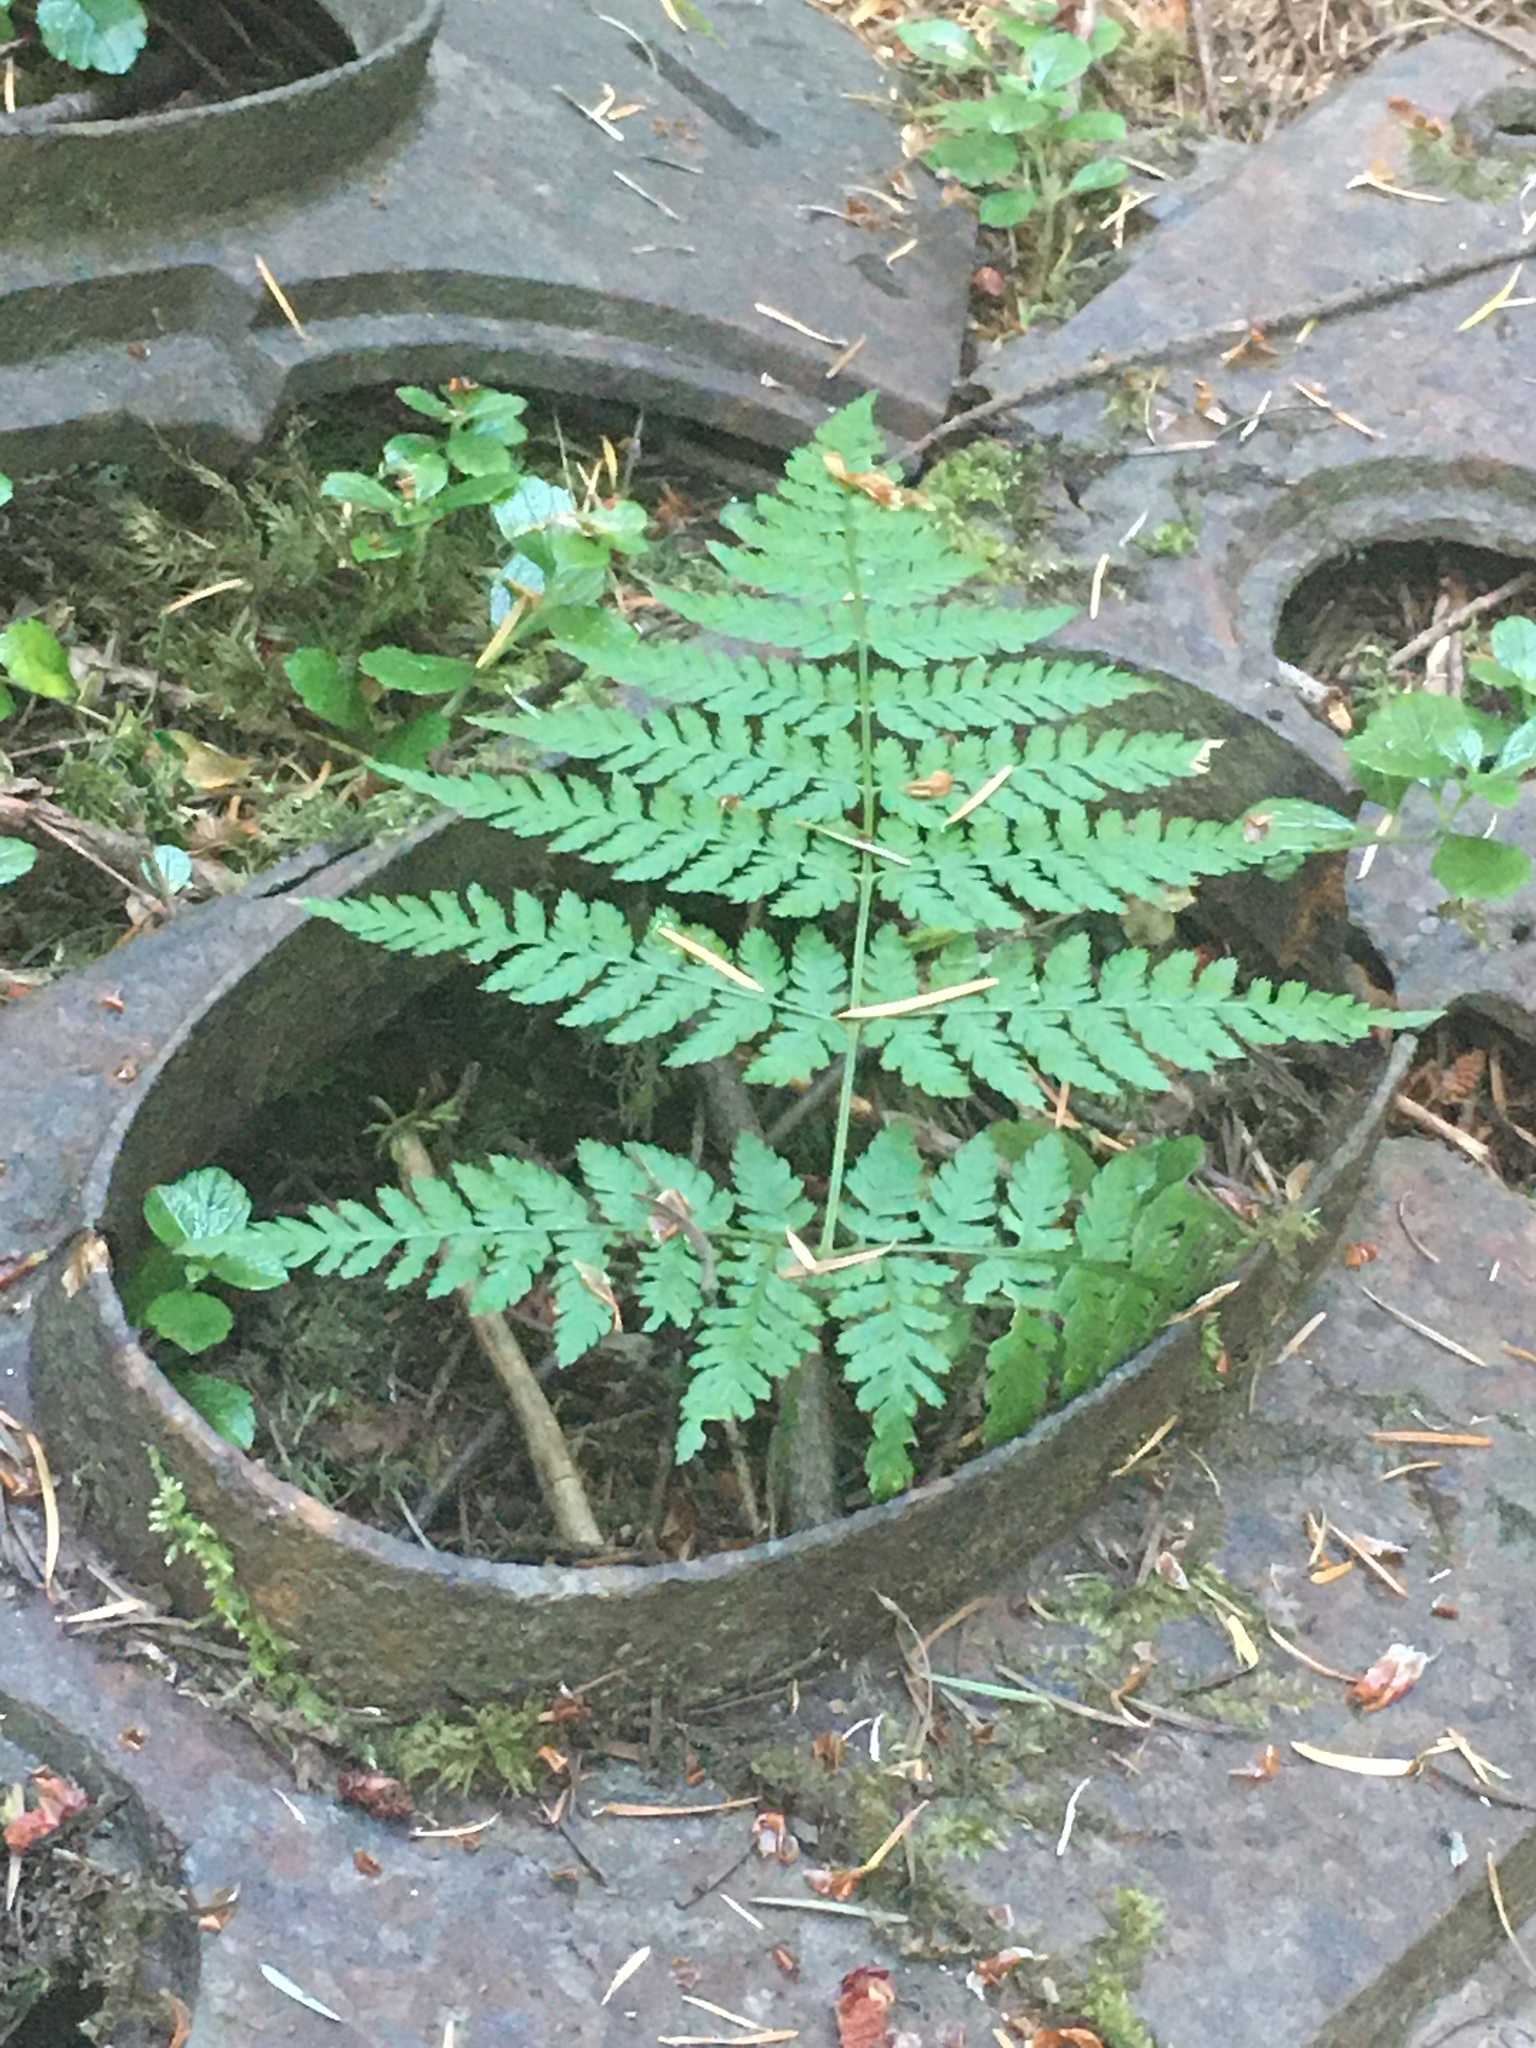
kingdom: Plantae
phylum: Tracheophyta
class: Polypodiopsida
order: Polypodiales
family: Dryopteridaceae
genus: Dryopteris
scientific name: Dryopteris expansa
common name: Northern buckler fern
